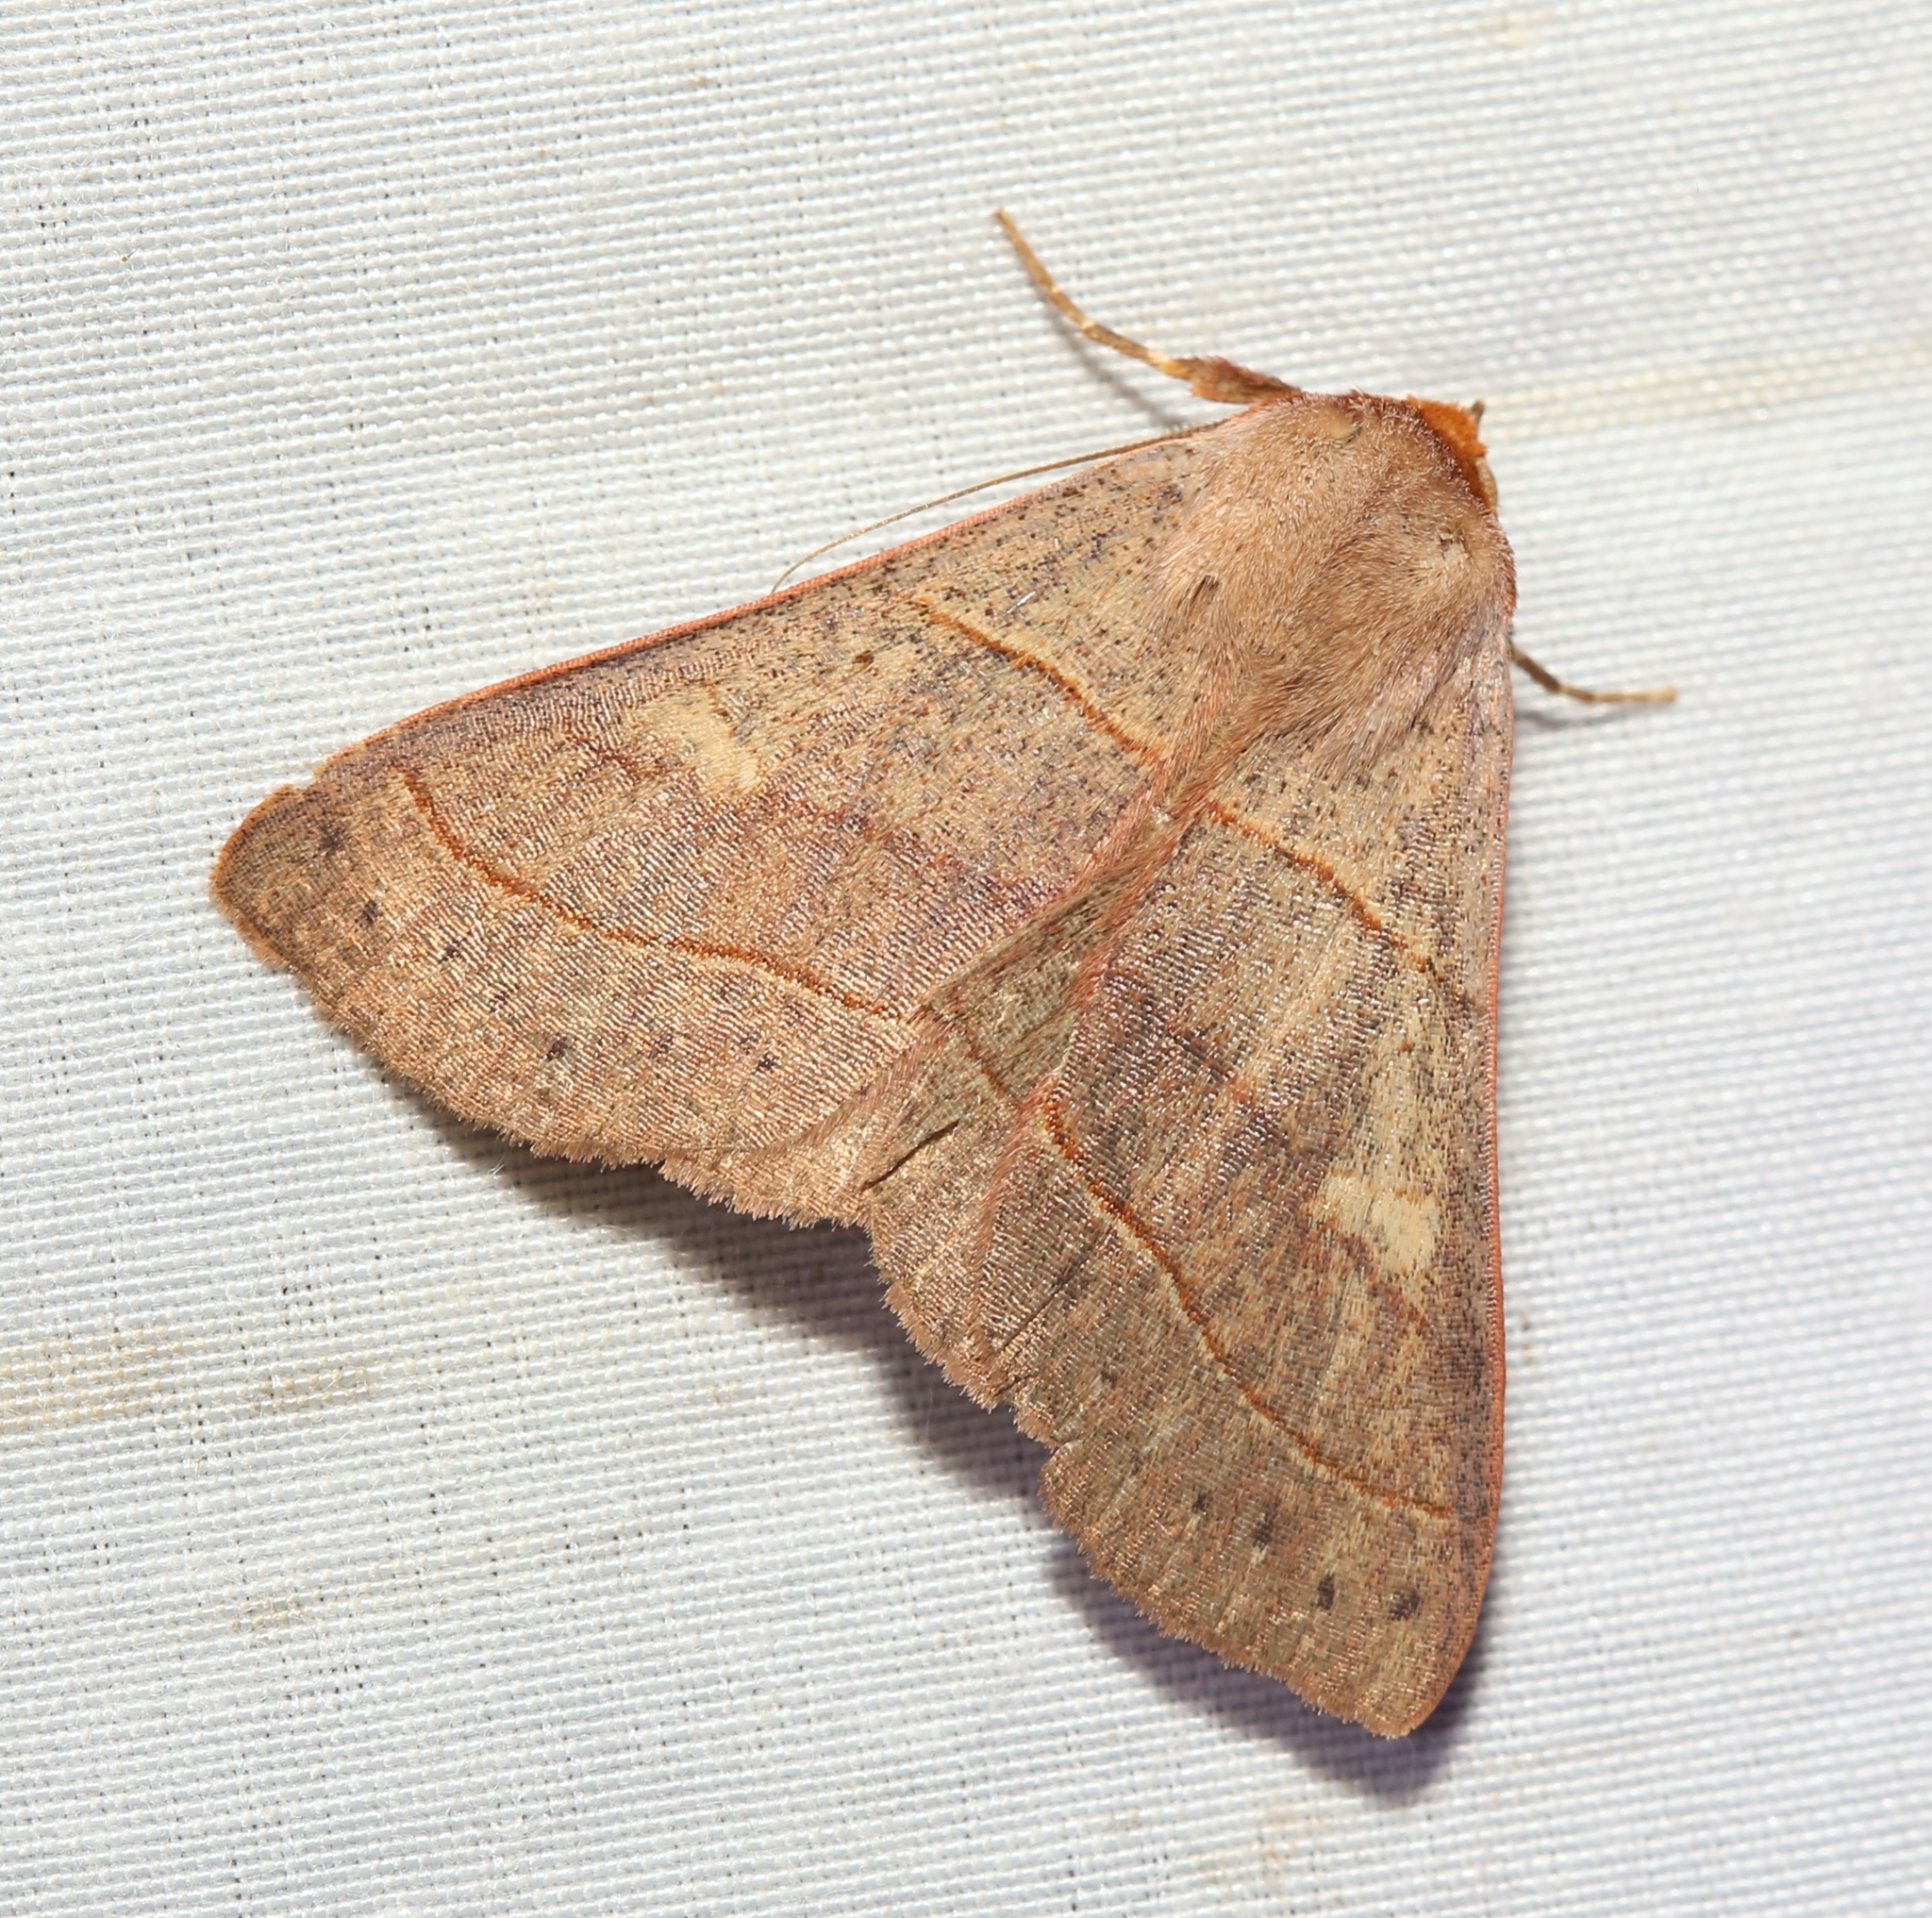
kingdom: Animalia
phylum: Arthropoda
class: Insecta
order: Lepidoptera
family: Erebidae
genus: Panopoda
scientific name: Panopoda rufimargo
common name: Red-lined panopoda moth
